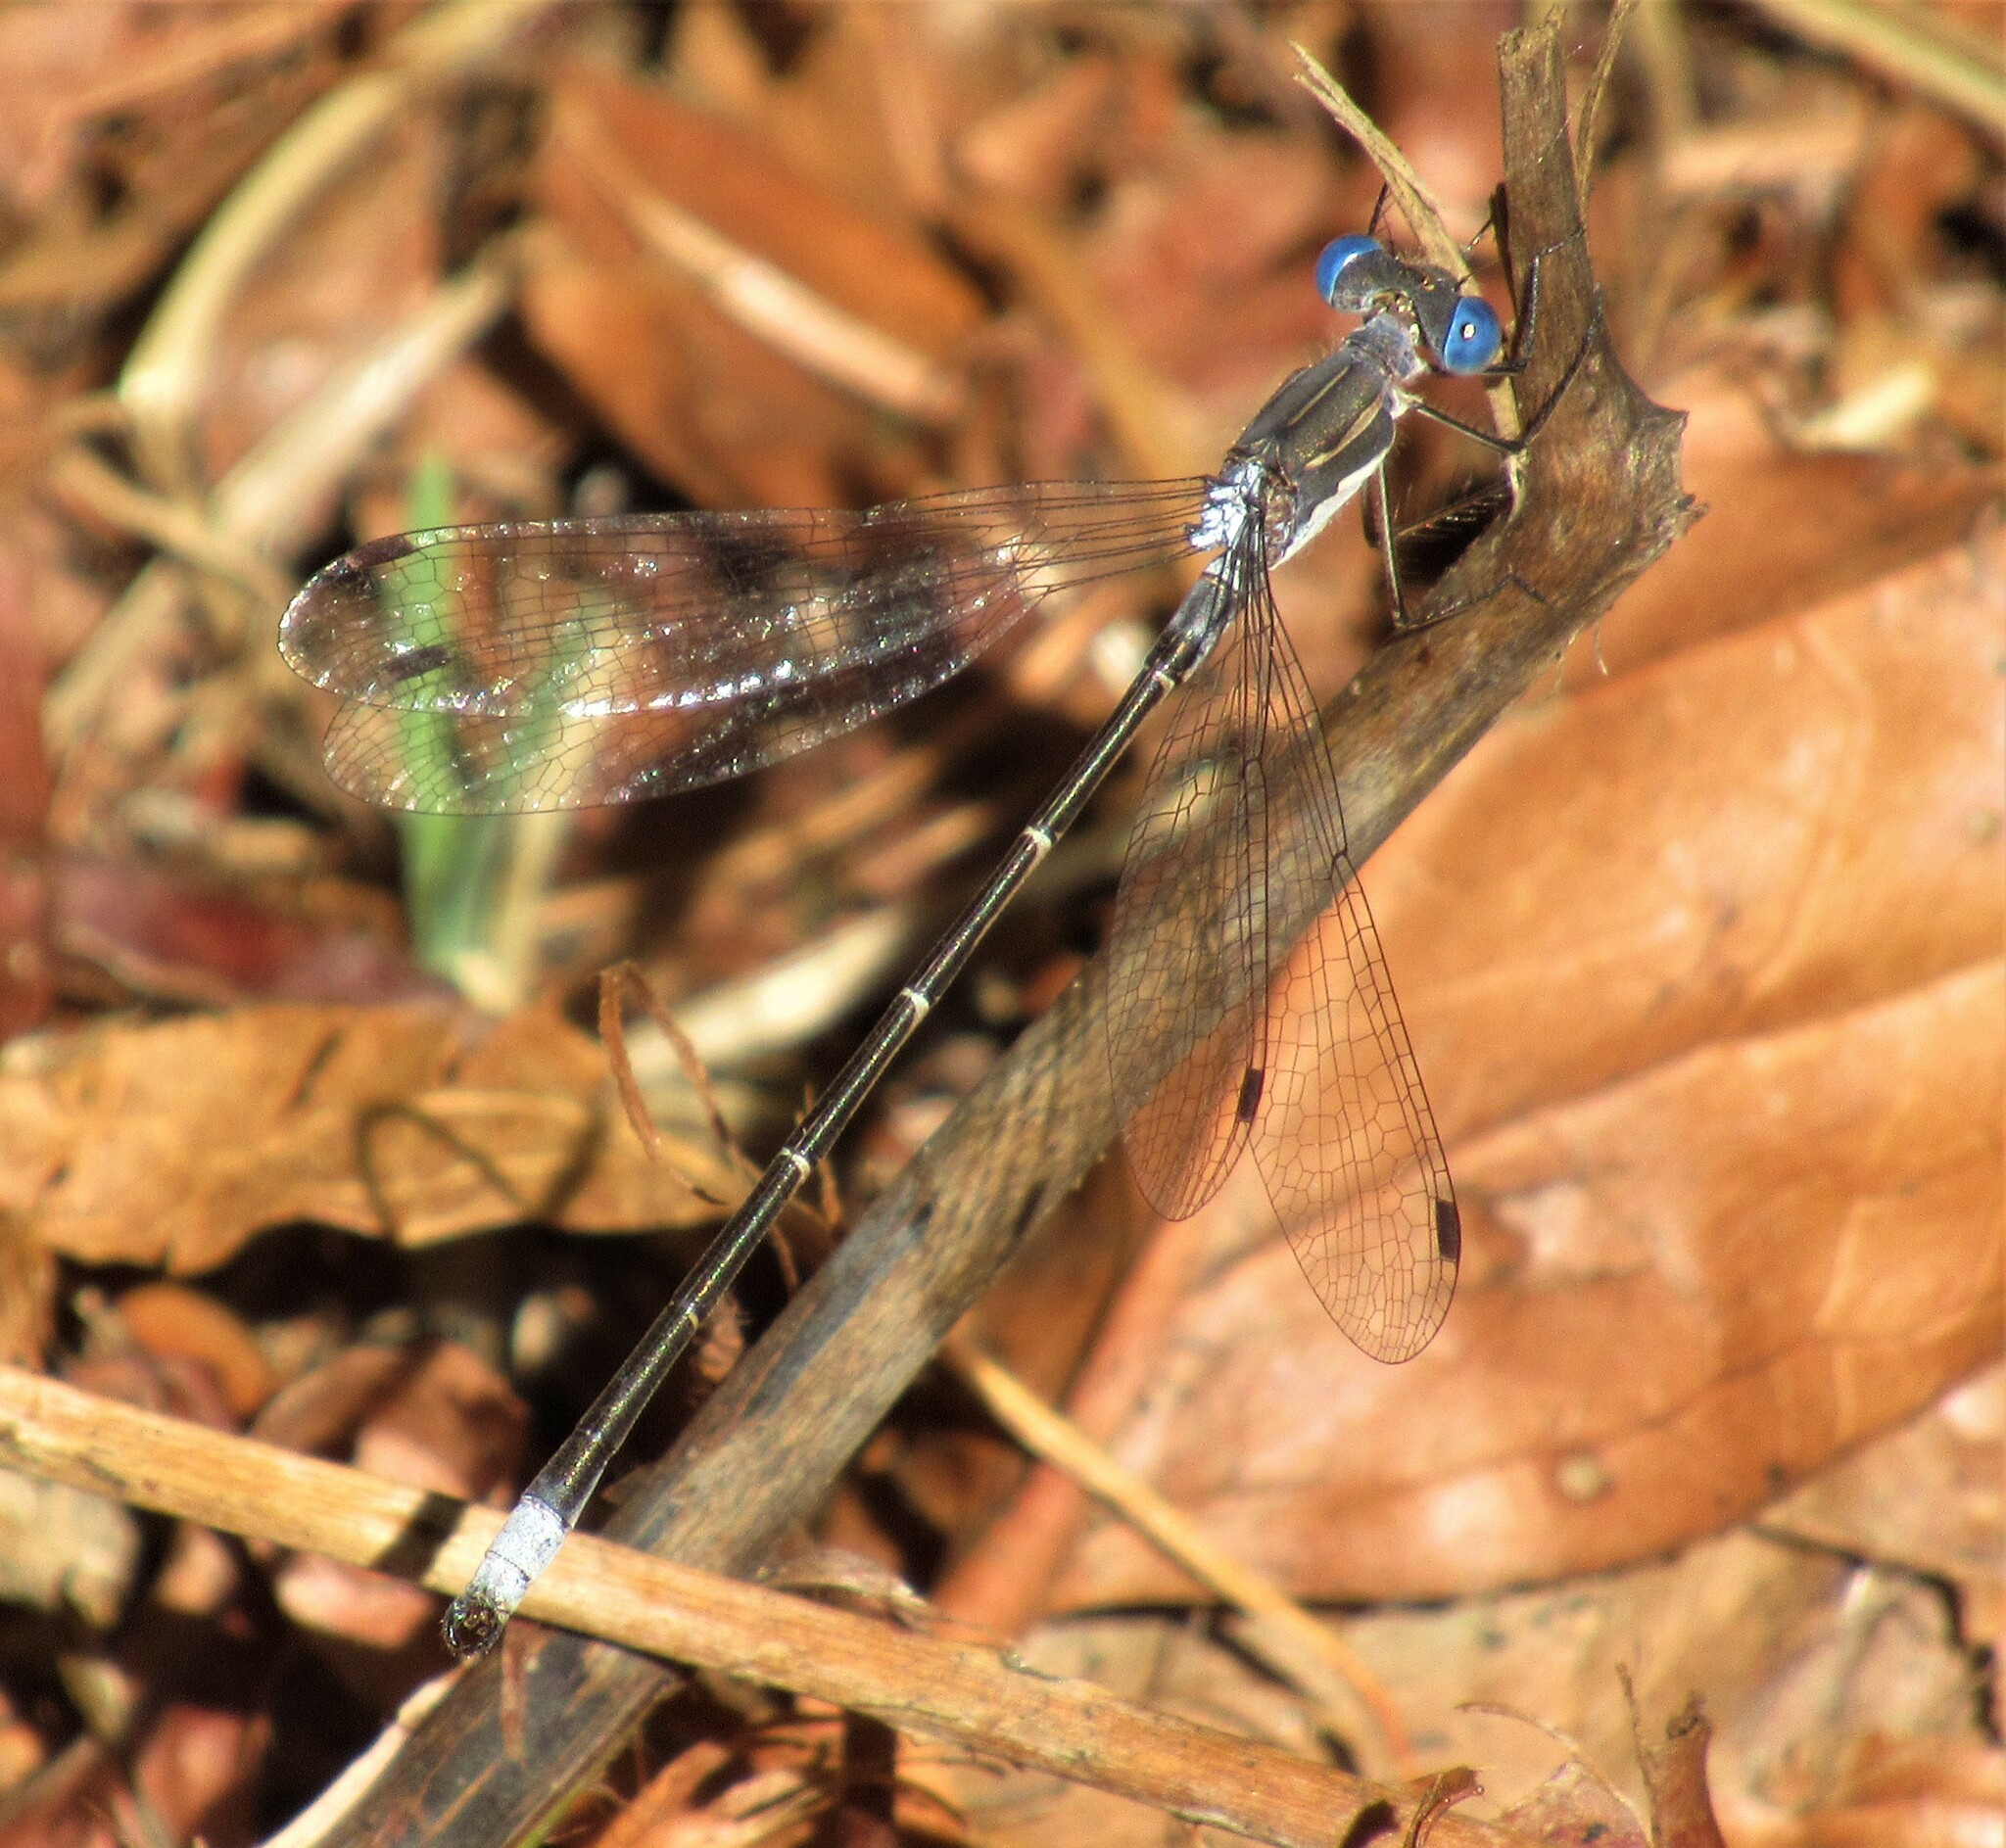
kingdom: Animalia
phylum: Arthropoda
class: Insecta
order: Odonata
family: Lestidae
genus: Lestes
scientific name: Lestes congener
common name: Spotted spreadwing
